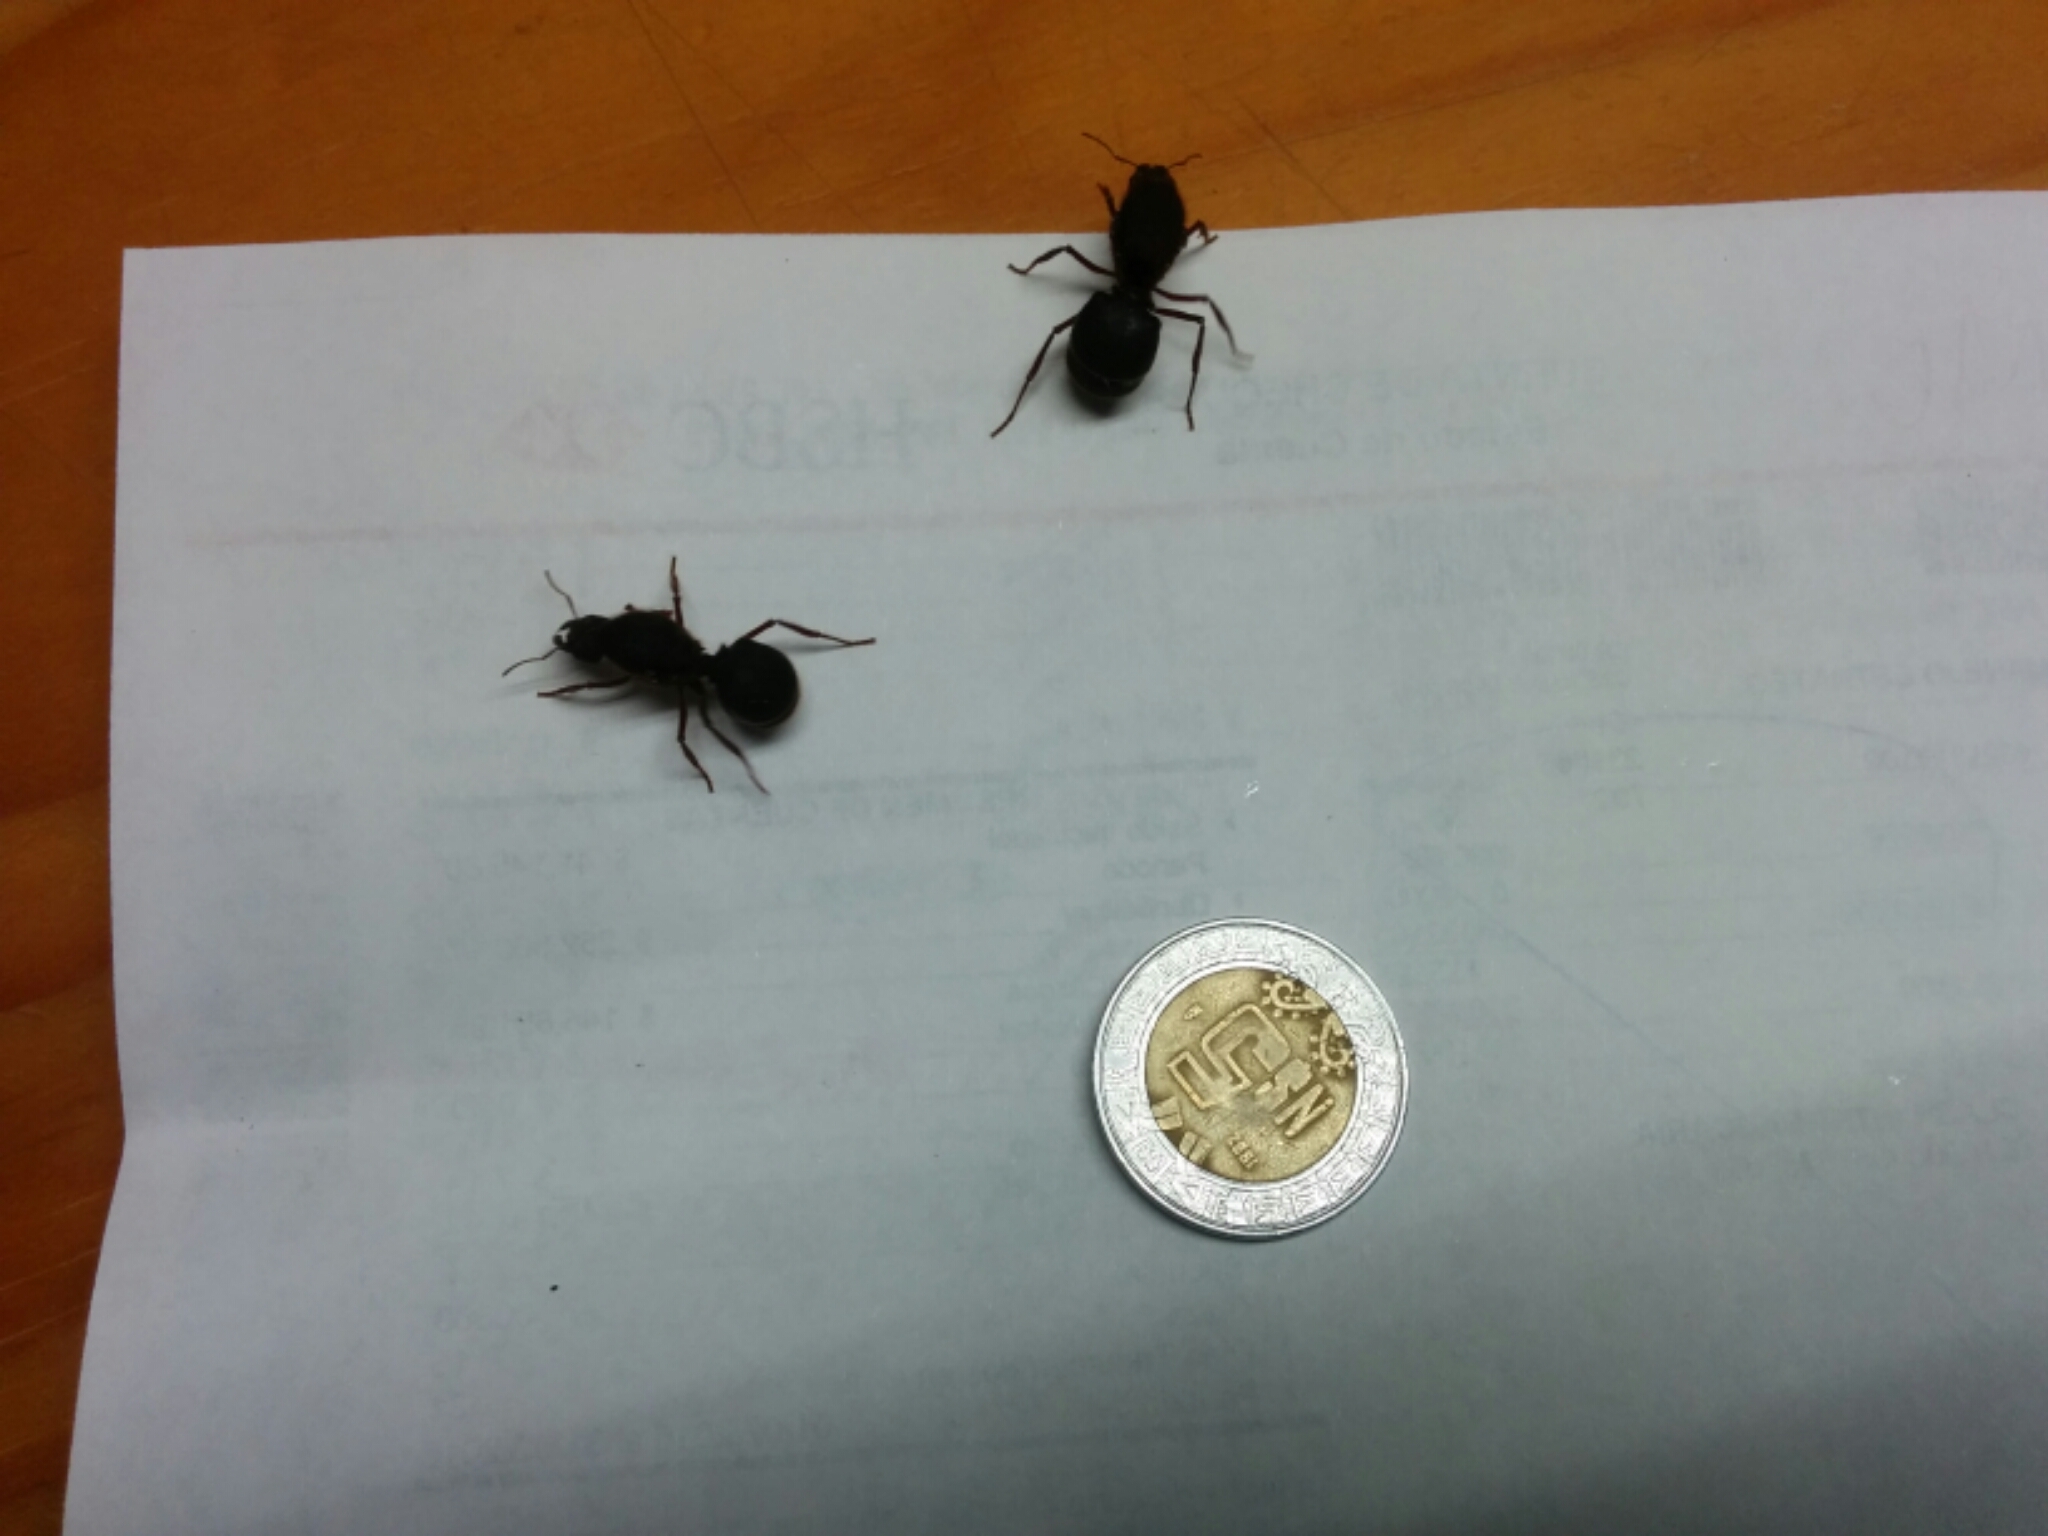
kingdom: Animalia
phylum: Arthropoda
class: Insecta
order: Hymenoptera
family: Formicidae
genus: Atta
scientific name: Atta mexicana
